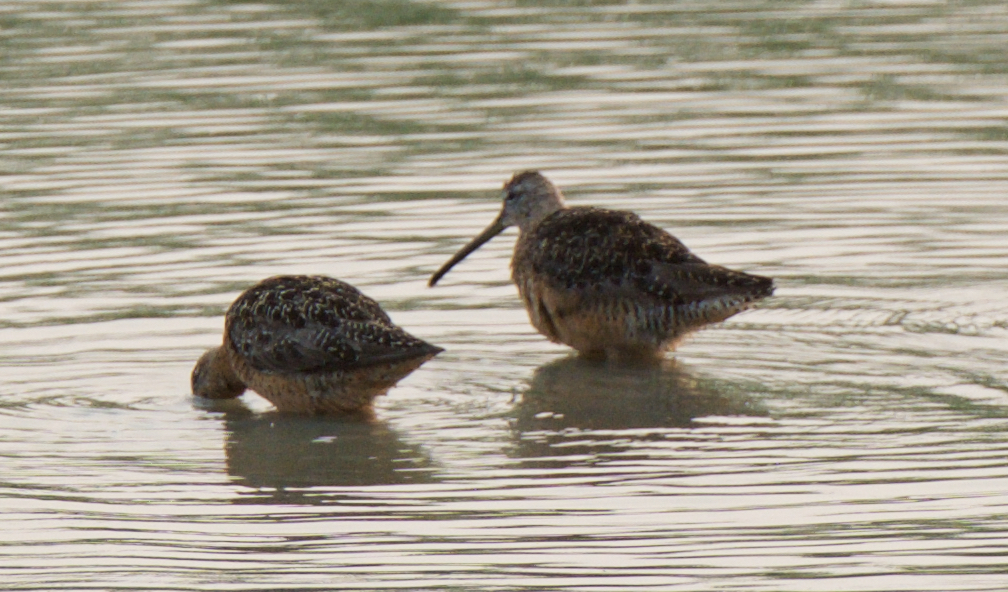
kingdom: Animalia
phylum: Chordata
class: Aves
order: Charadriiformes
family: Scolopacidae
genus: Limnodromus
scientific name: Limnodromus scolopaceus
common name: Long-billed dowitcher
